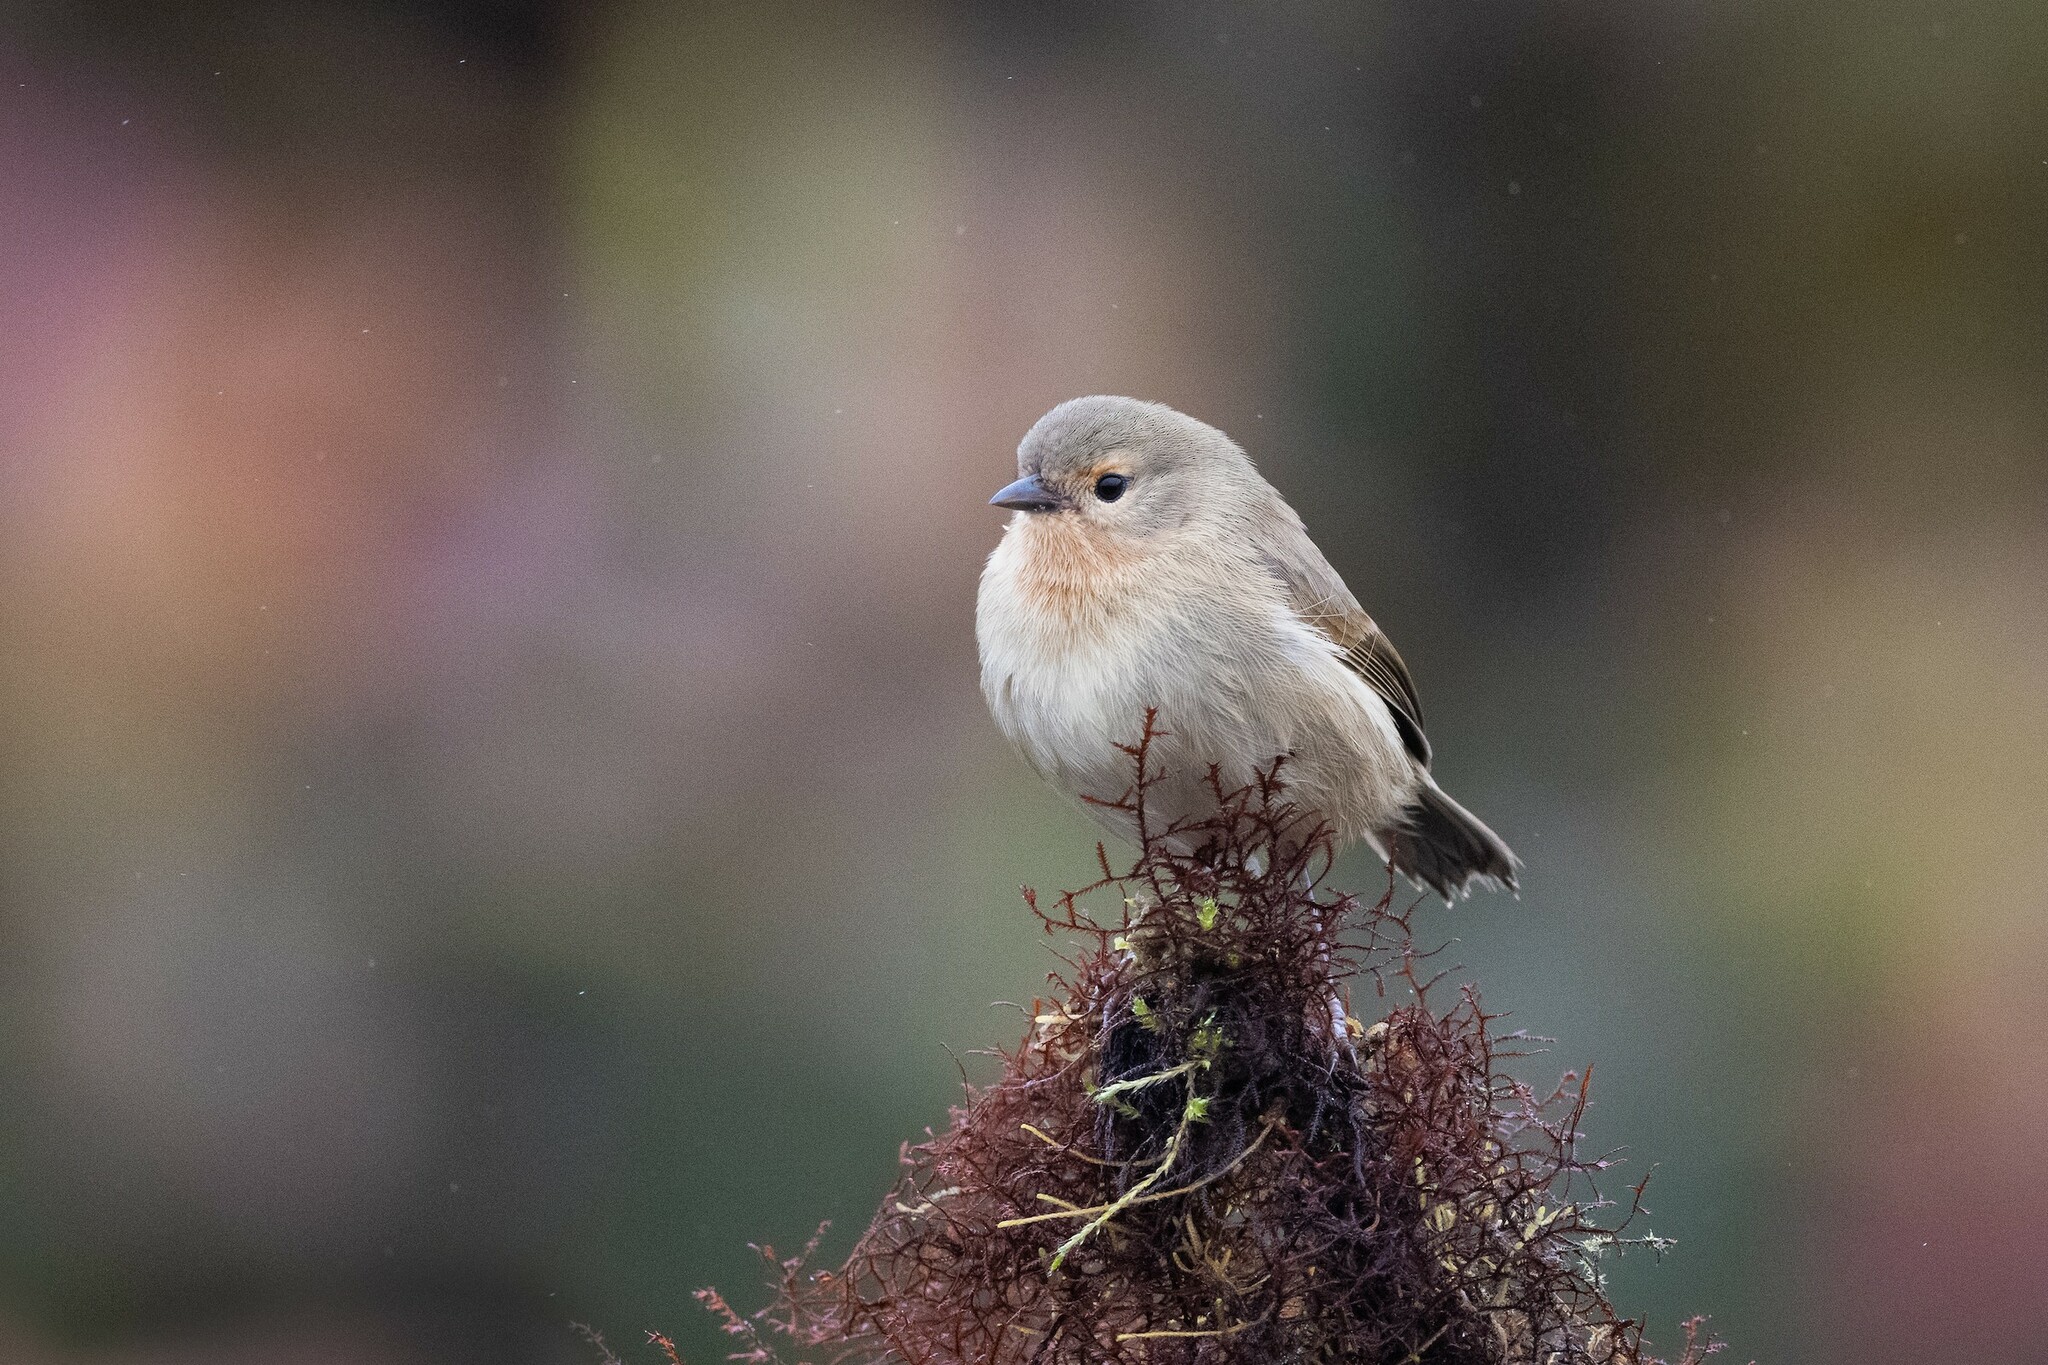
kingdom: Animalia
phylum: Chordata
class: Aves
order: Passeriformes
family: Thraupidae
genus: Certhidea
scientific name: Certhidea olivacea
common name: Green warbler-finch
